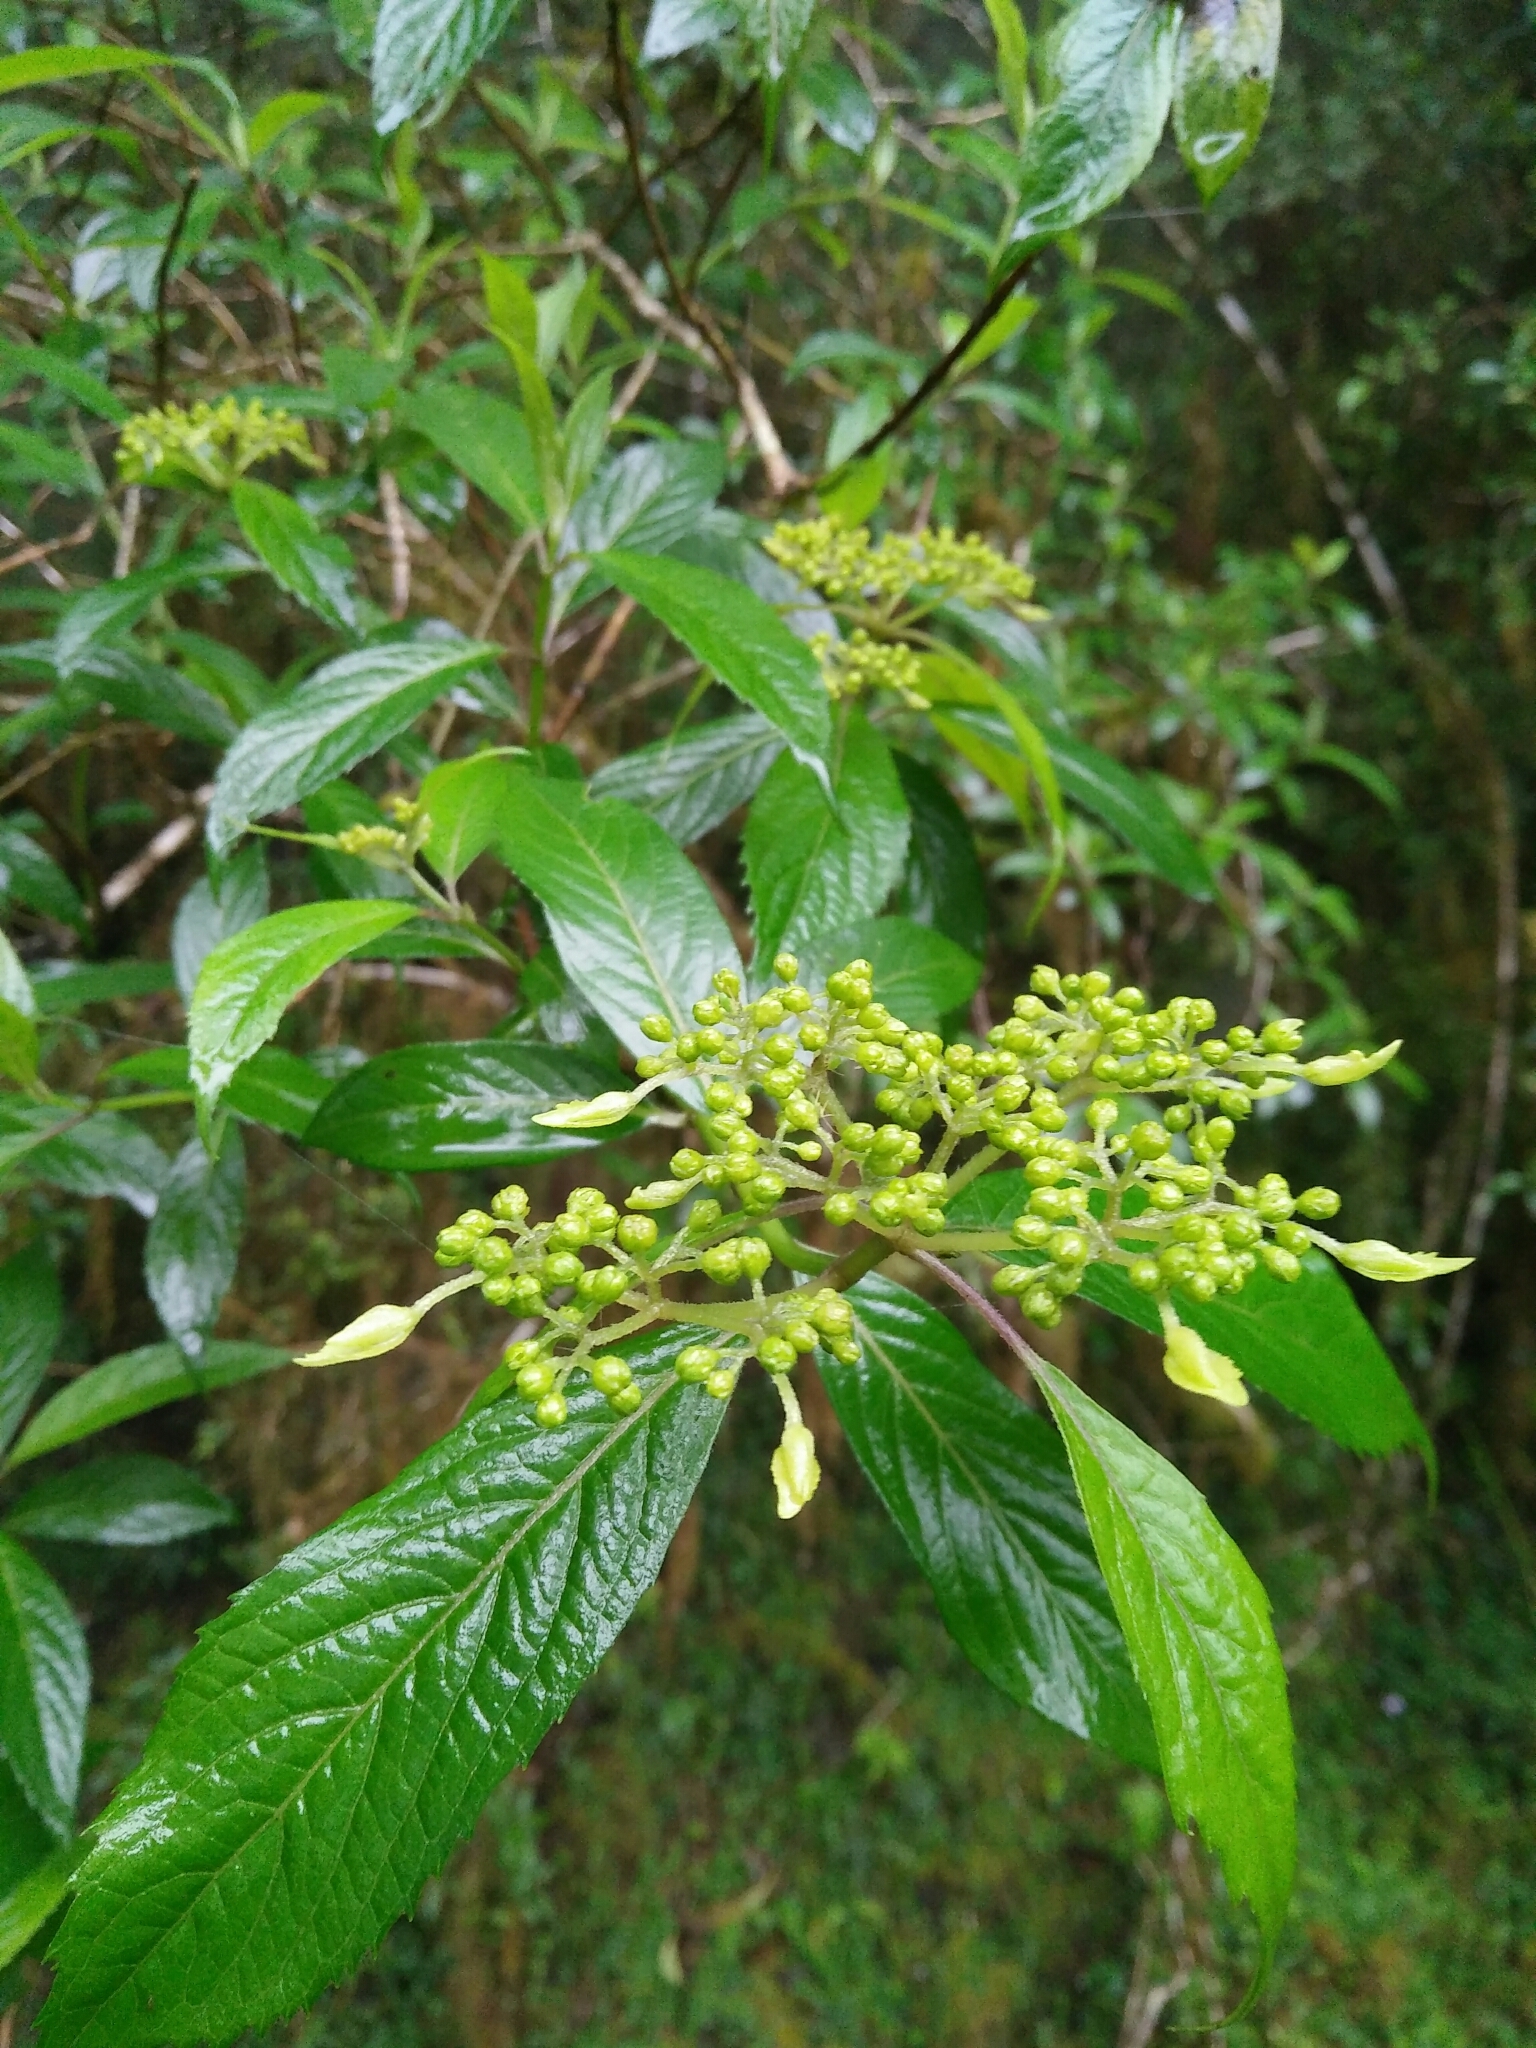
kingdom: Plantae
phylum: Tracheophyta
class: Magnoliopsida
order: Cornales
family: Hydrangeaceae
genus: Hydrangea
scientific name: Hydrangea chinensis
